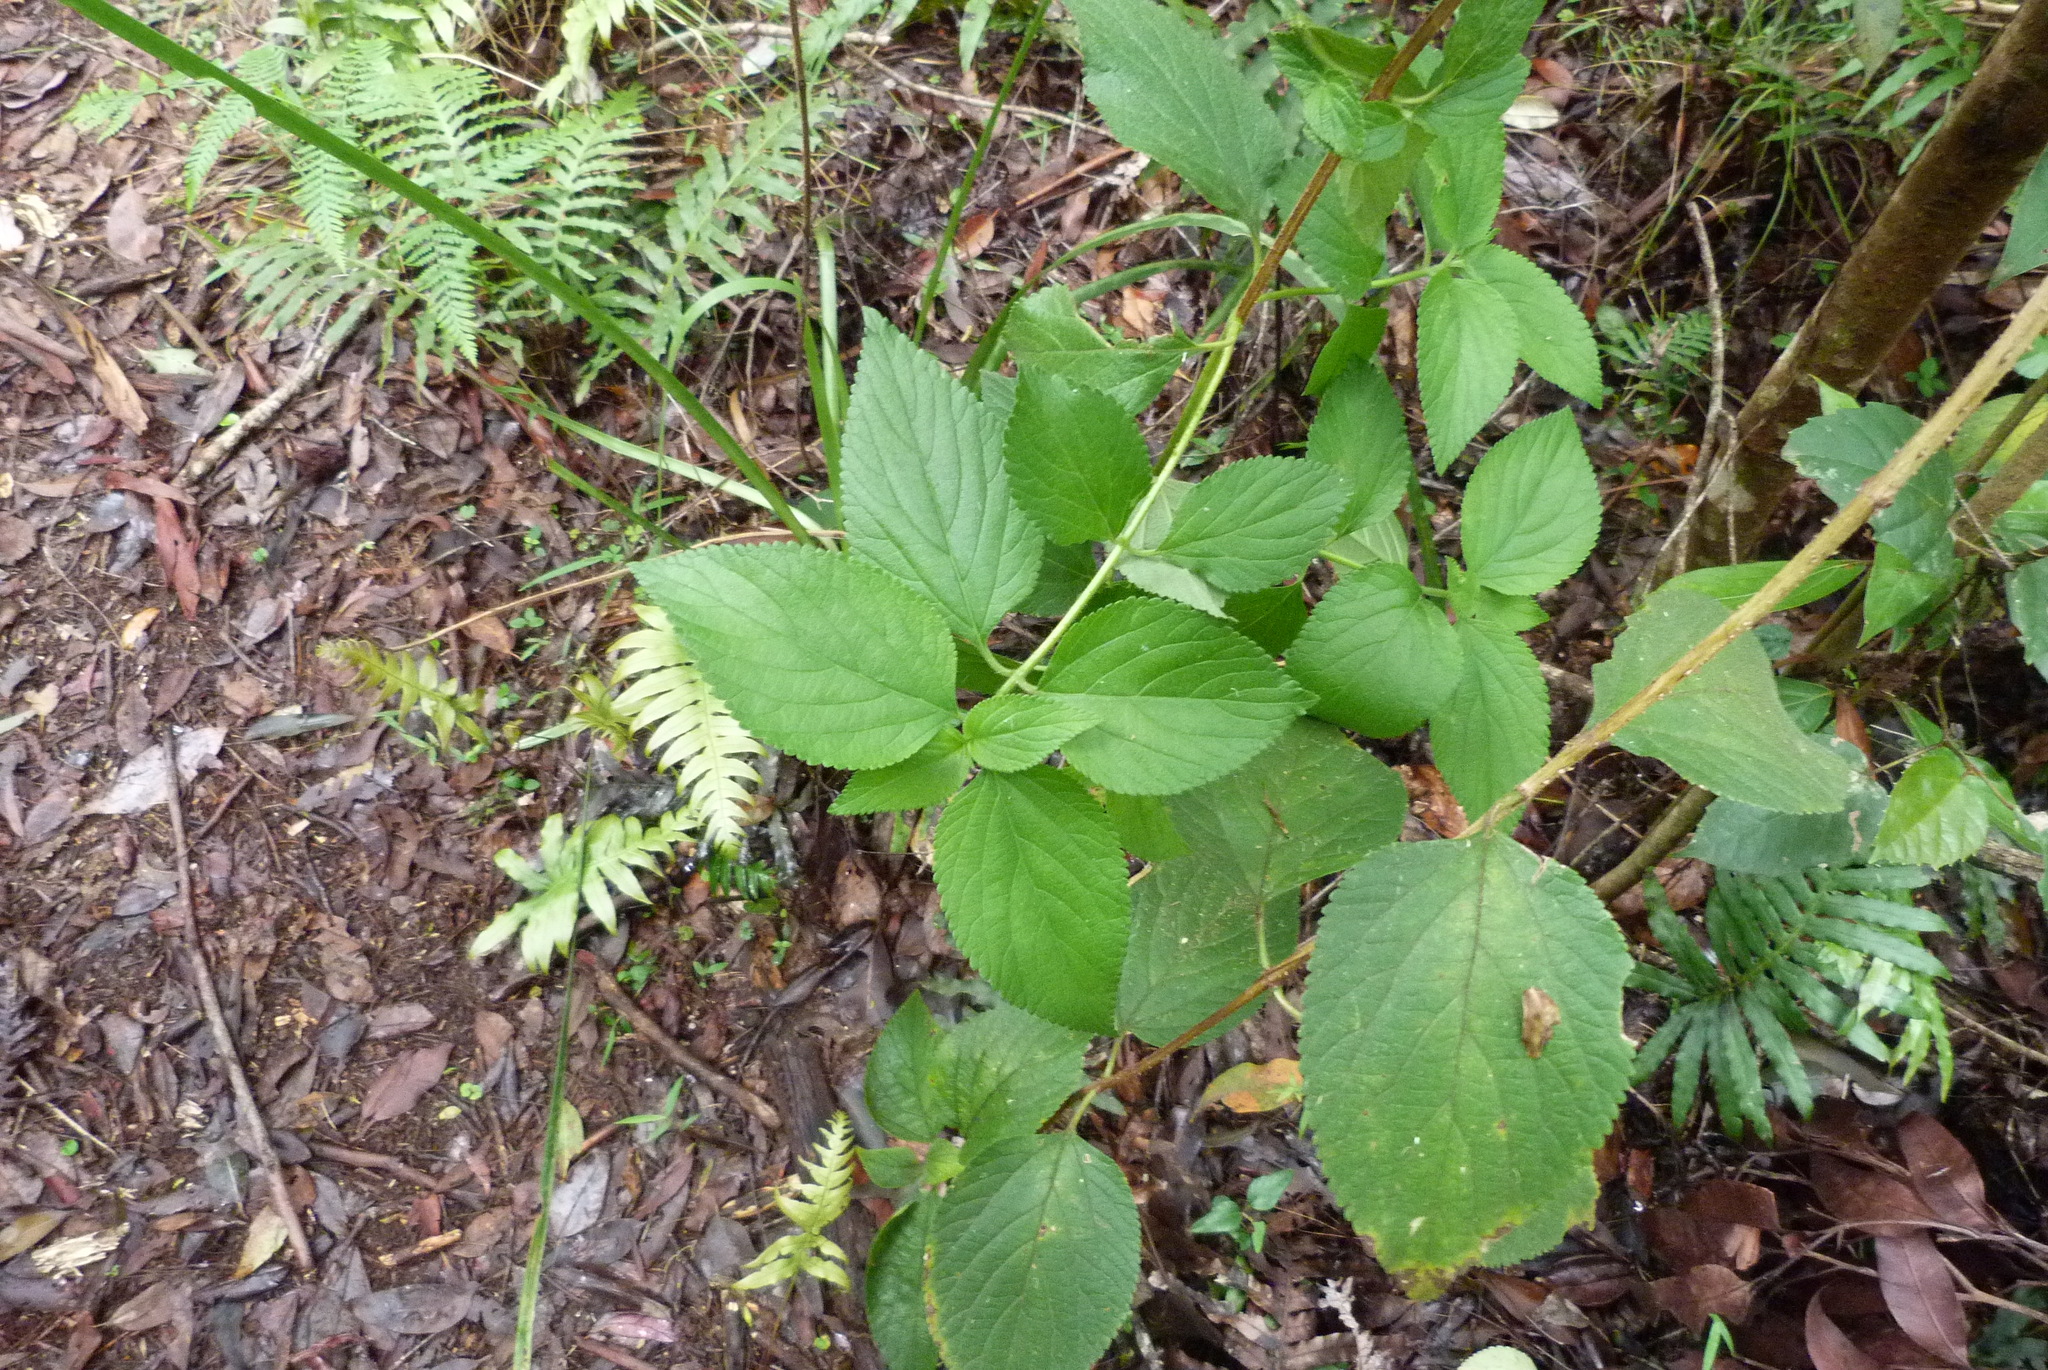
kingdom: Plantae
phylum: Tracheophyta
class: Magnoliopsida
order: Lamiales
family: Verbenaceae
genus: Lantana
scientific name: Lantana camara
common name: Lantana
